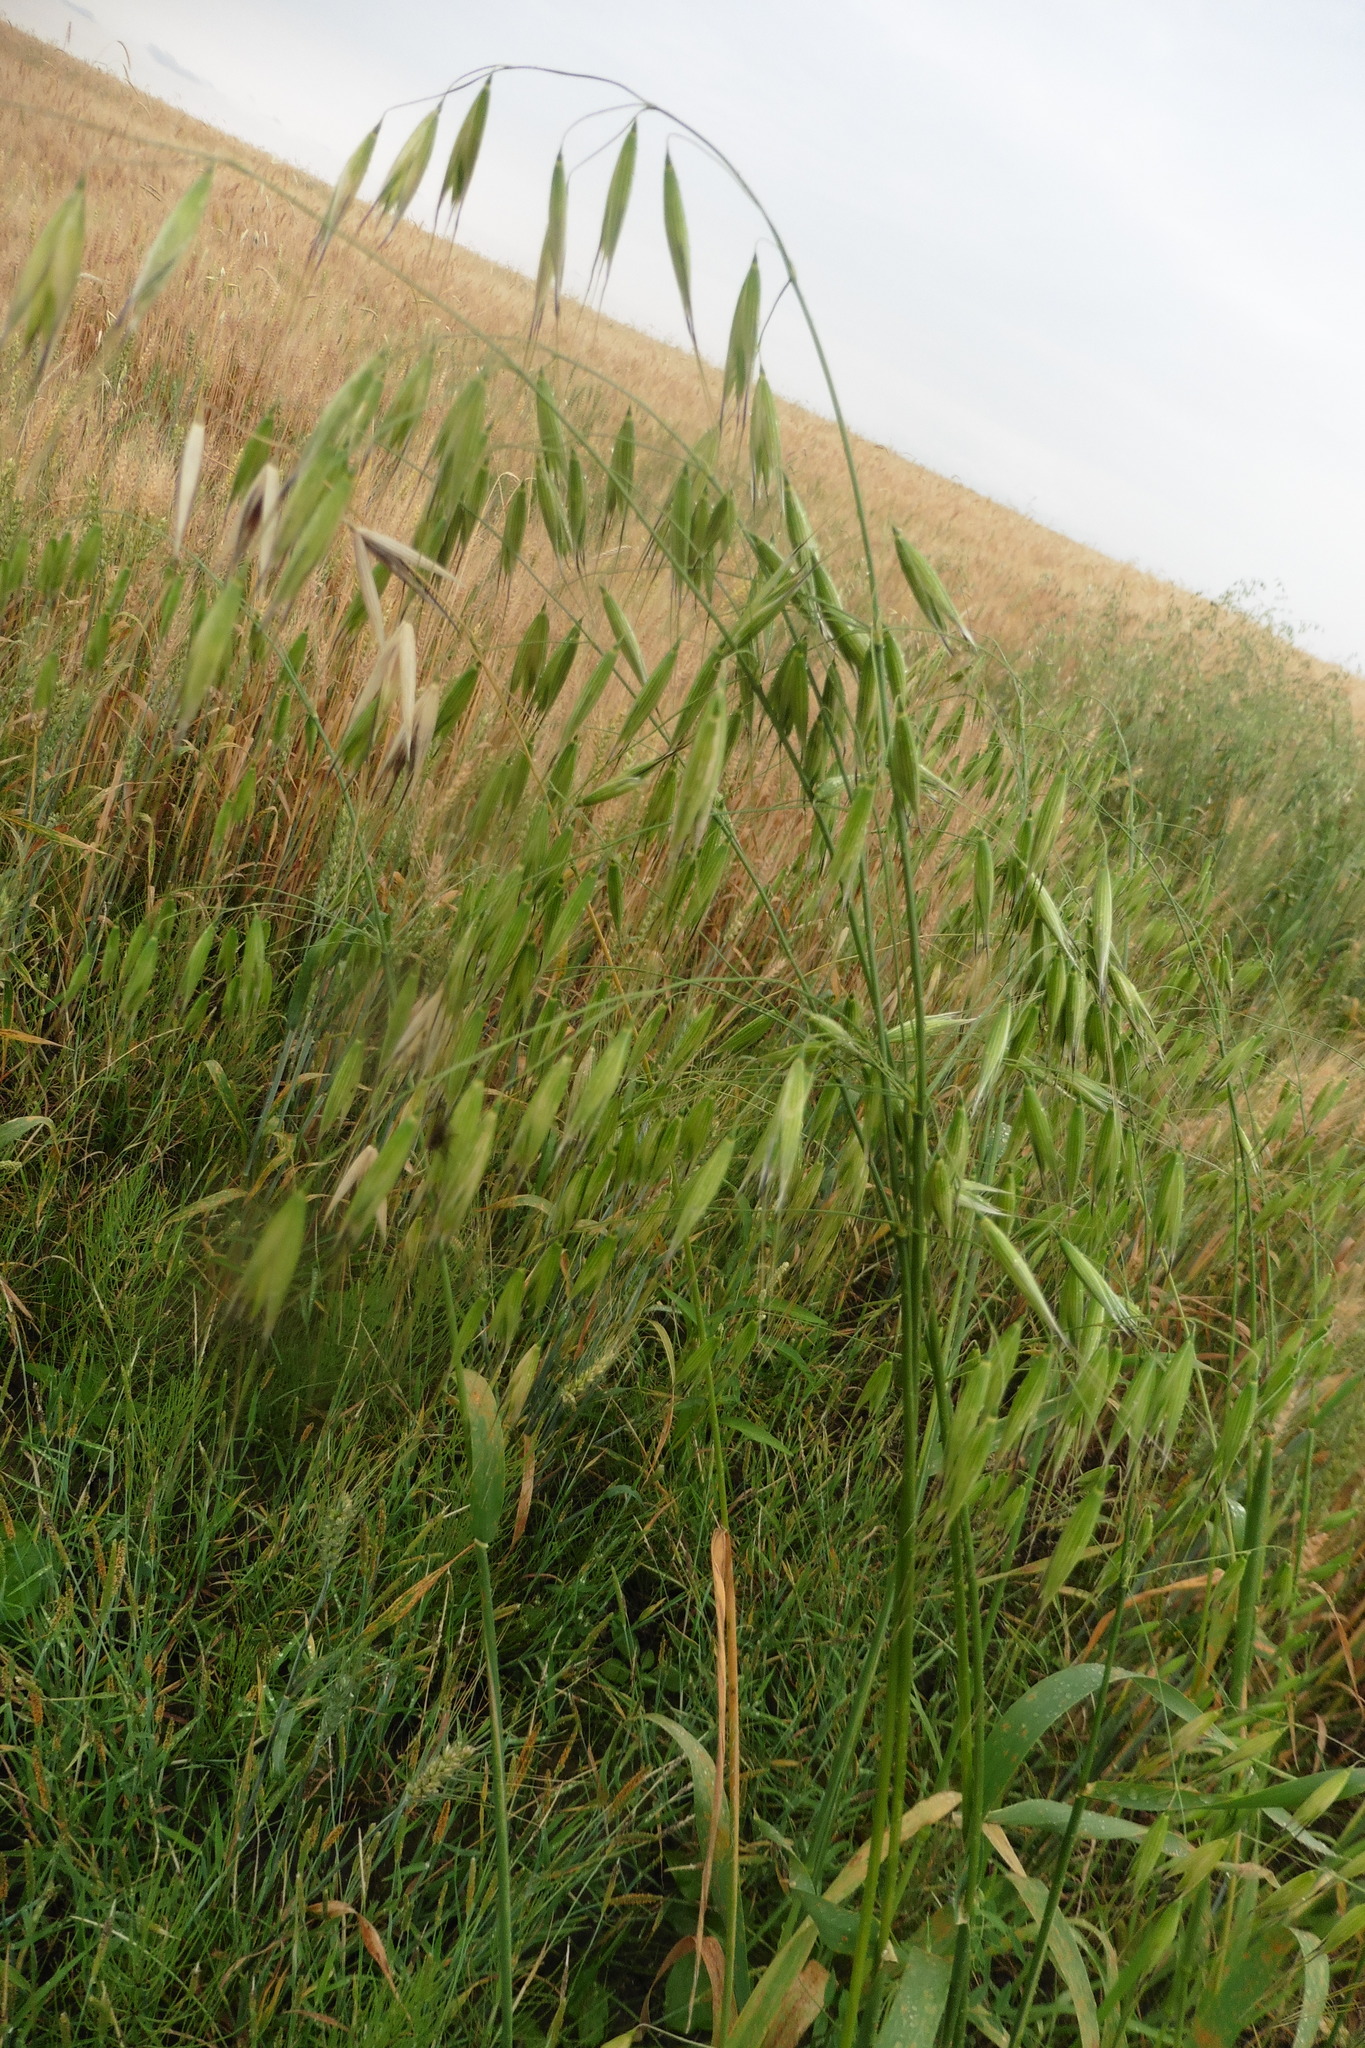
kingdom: Plantae
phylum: Tracheophyta
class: Liliopsida
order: Poales
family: Poaceae
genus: Avena
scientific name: Avena fatua
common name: Wild oat
